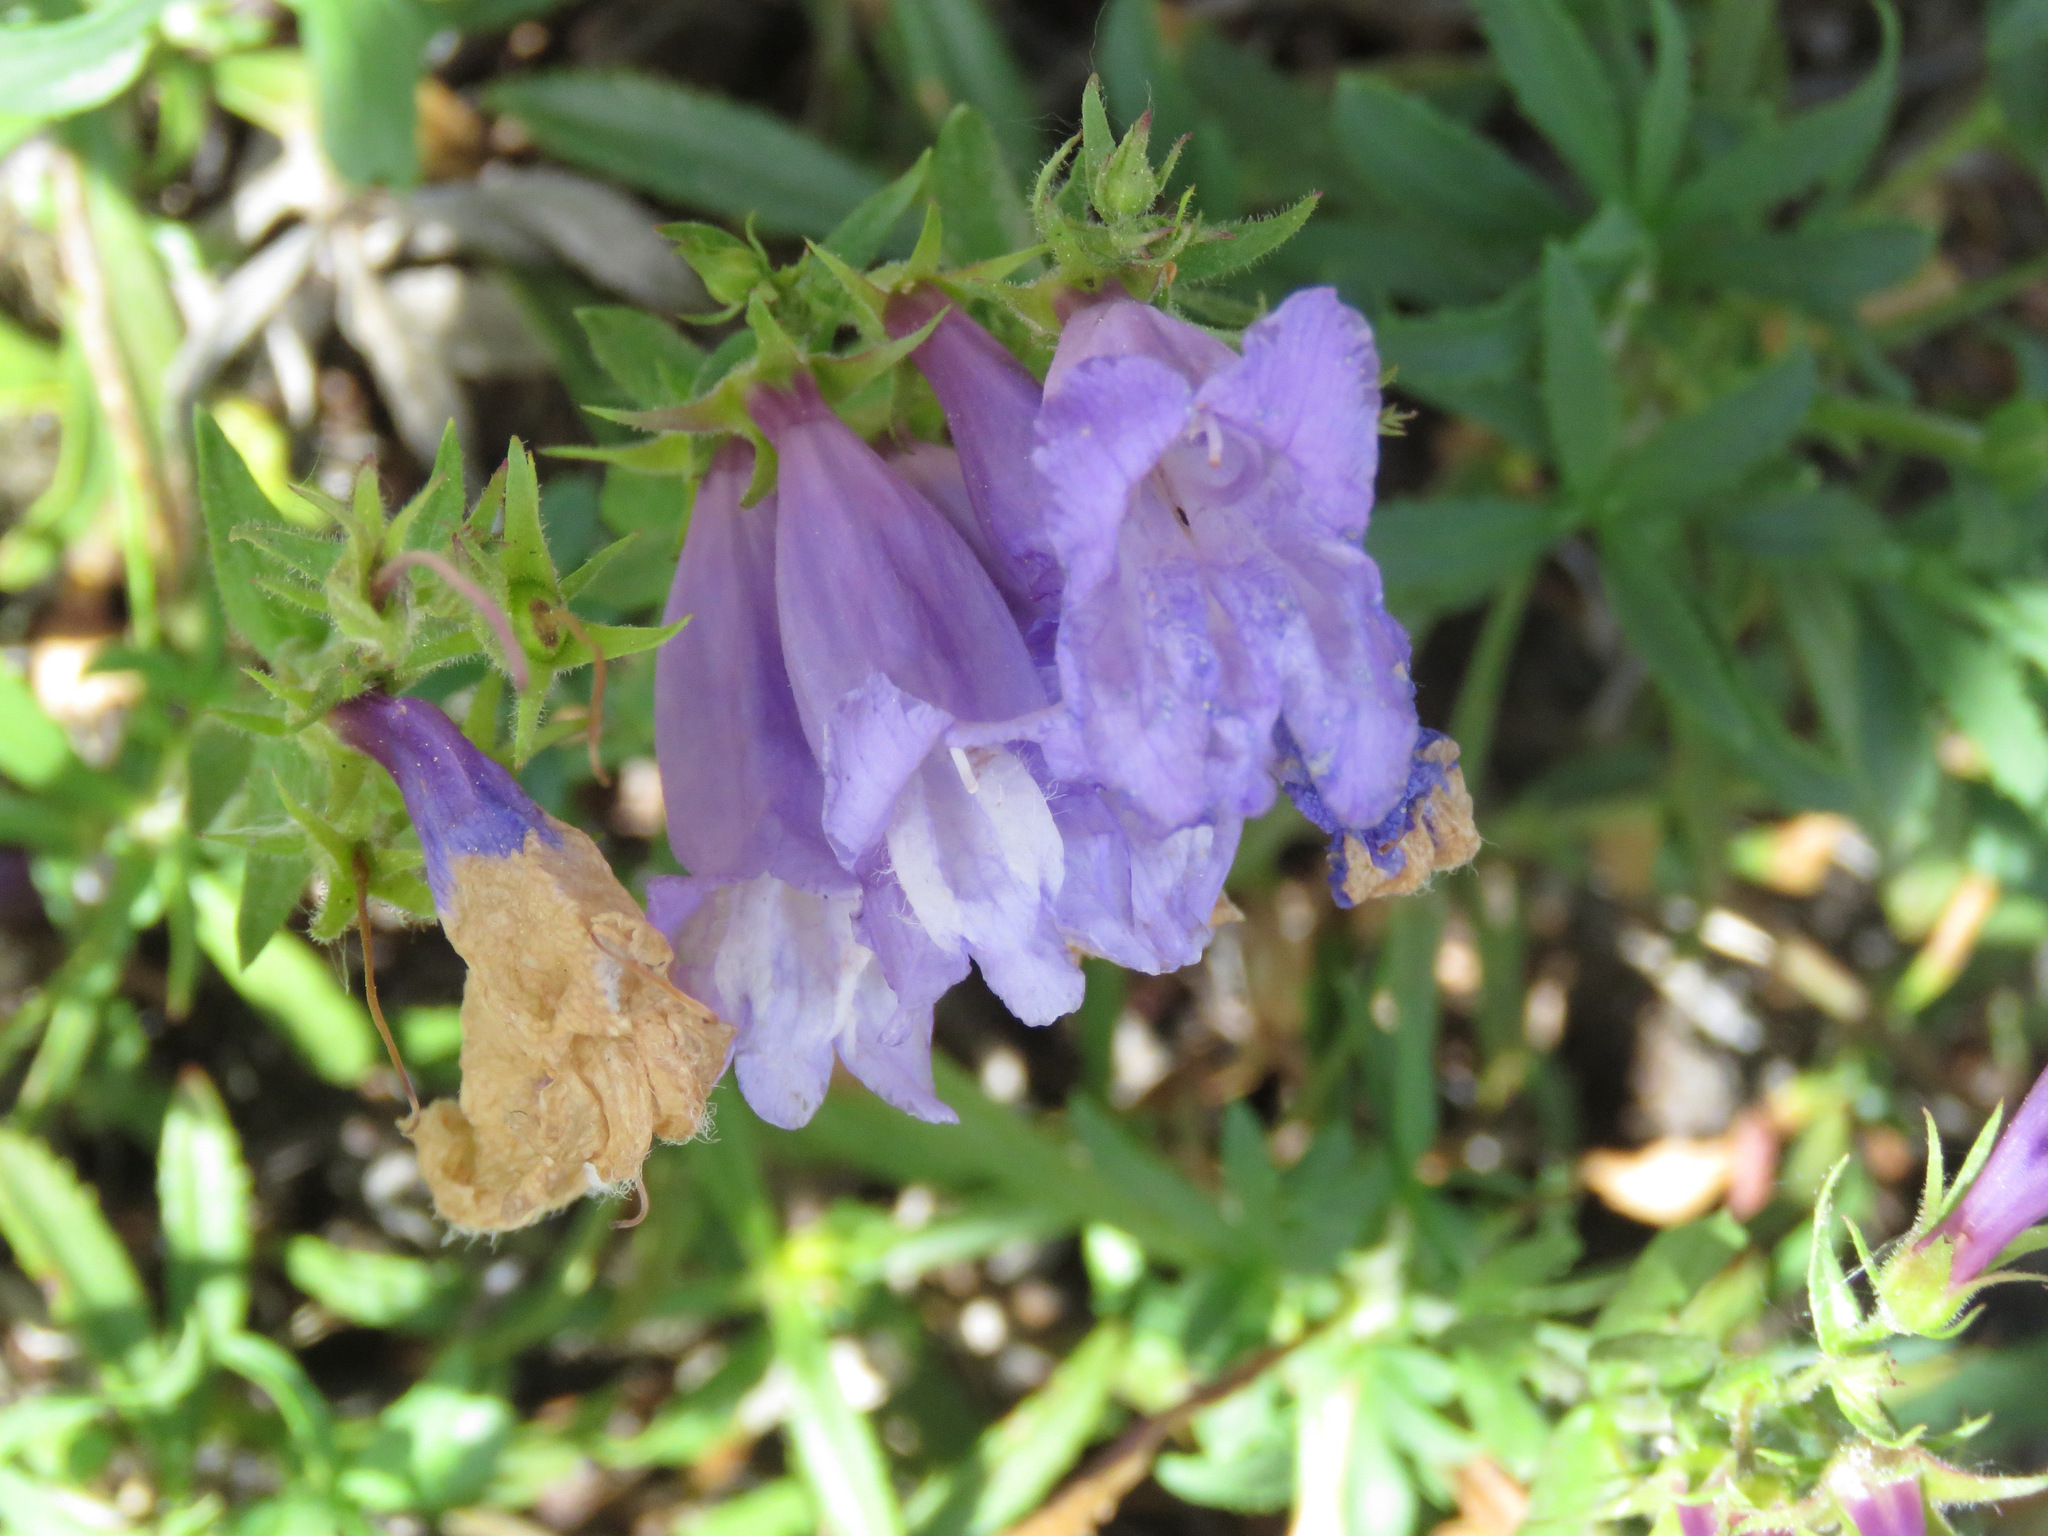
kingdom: Plantae
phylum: Tracheophyta
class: Magnoliopsida
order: Lamiales
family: Plantaginaceae
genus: Penstemon
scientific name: Penstemon fruticosus
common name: Bush penstemon
